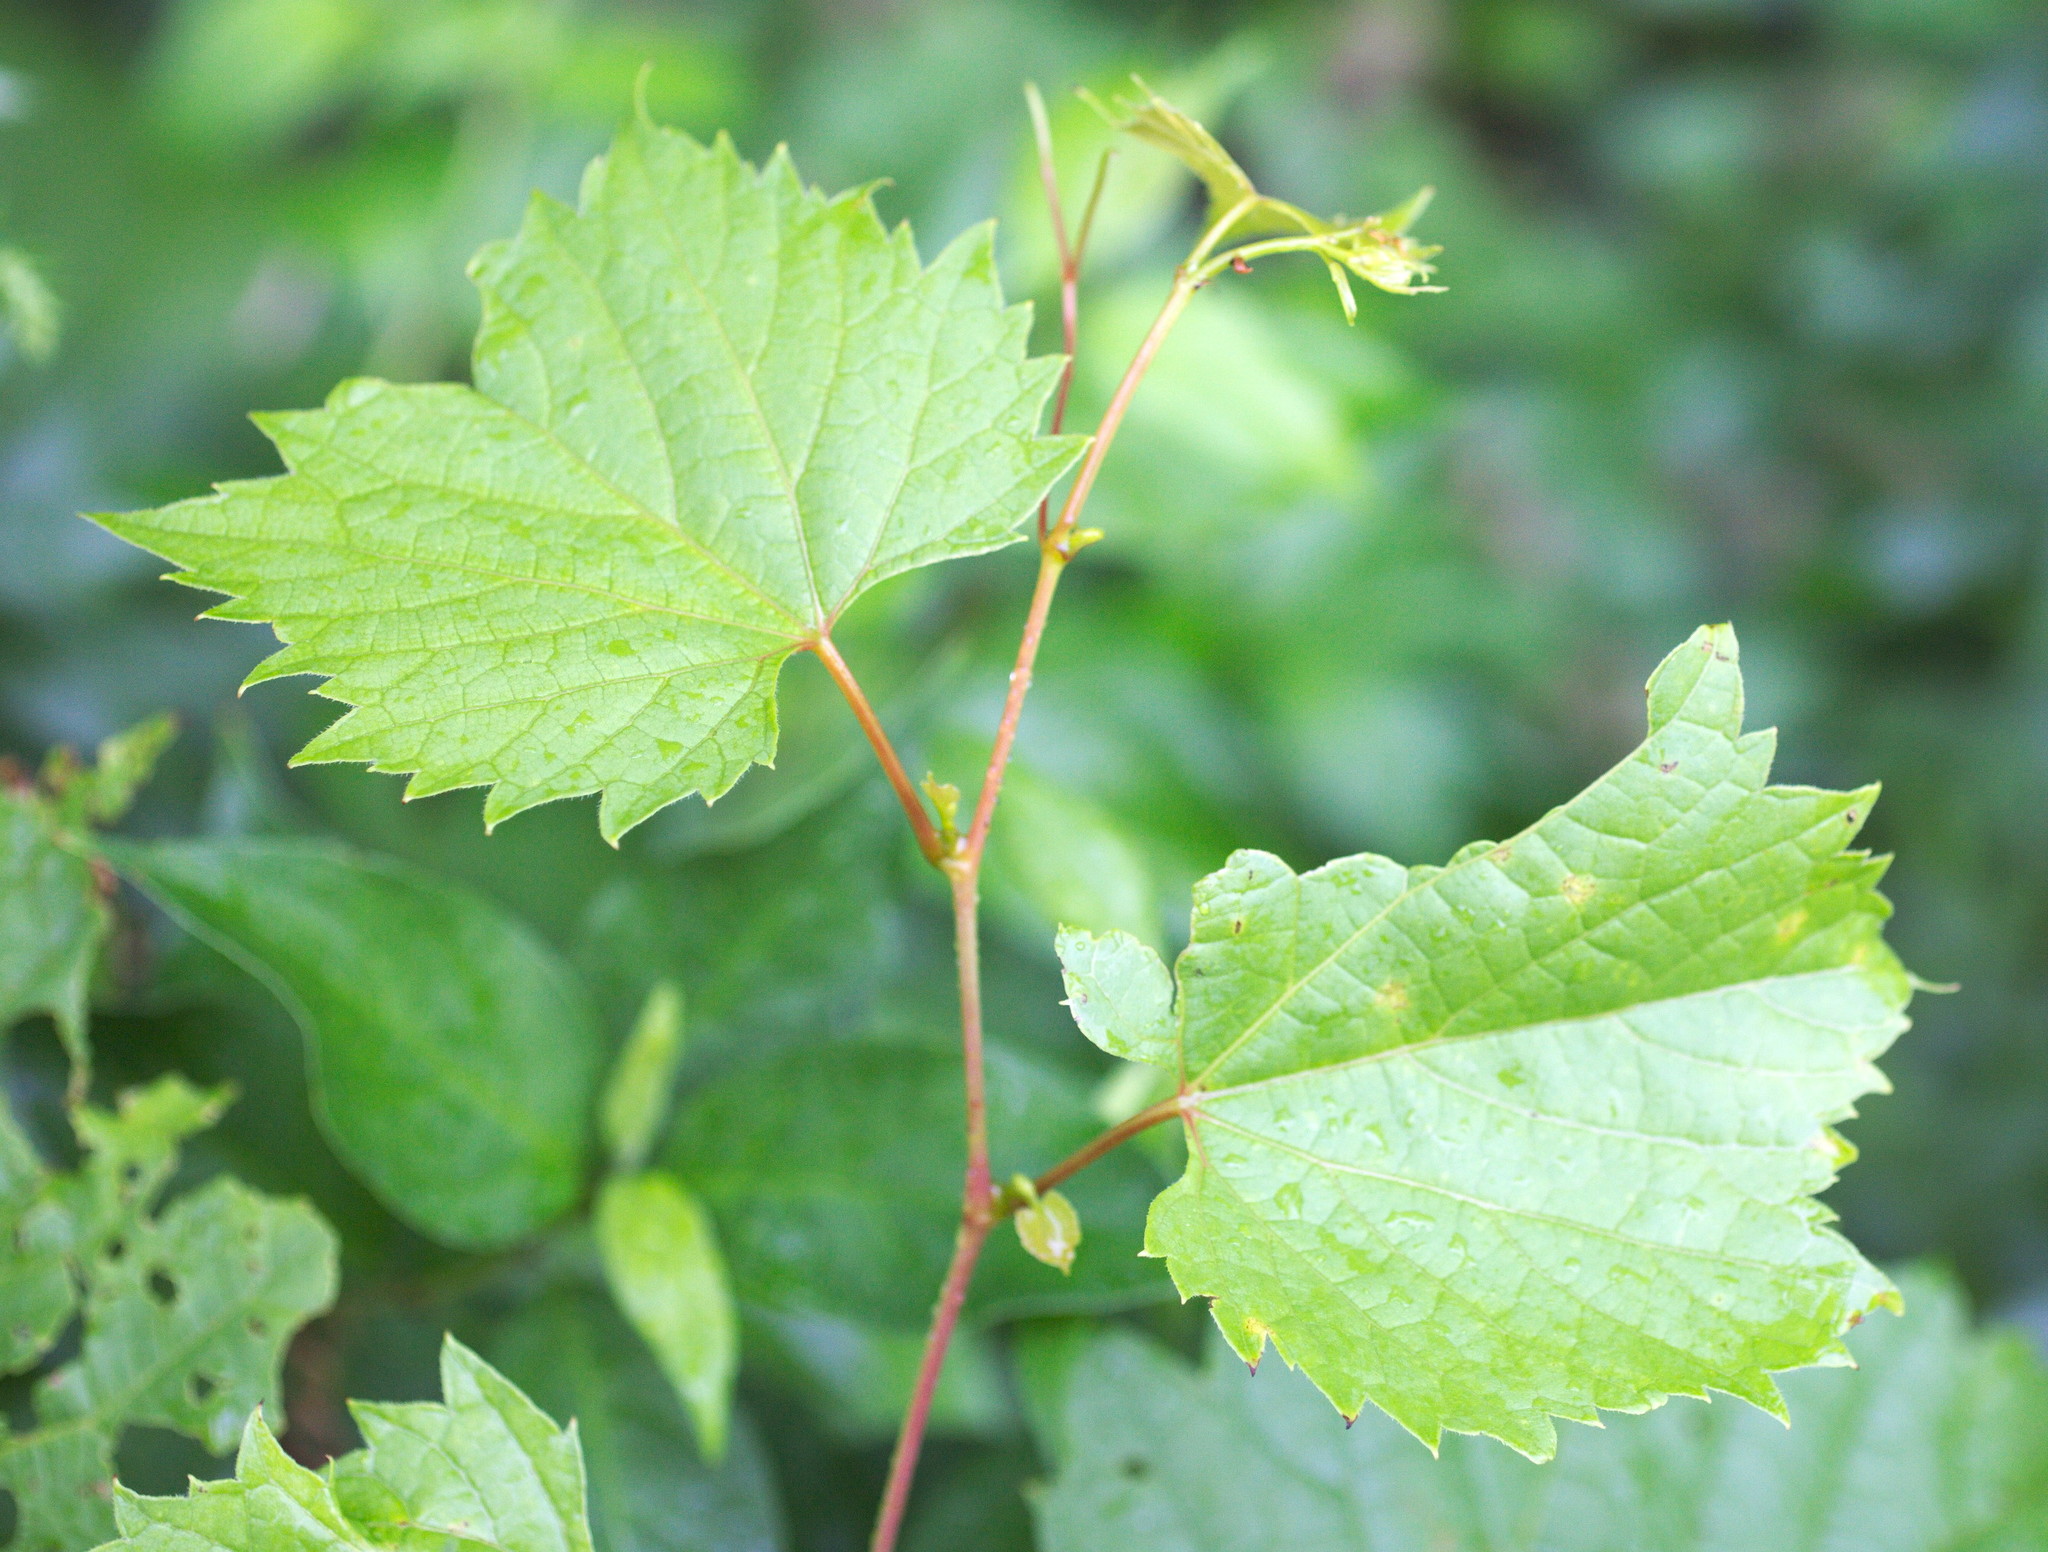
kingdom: Plantae
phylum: Tracheophyta
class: Magnoliopsida
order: Vitales
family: Vitaceae
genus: Vitis
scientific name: Vitis riparia
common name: Frost grape
